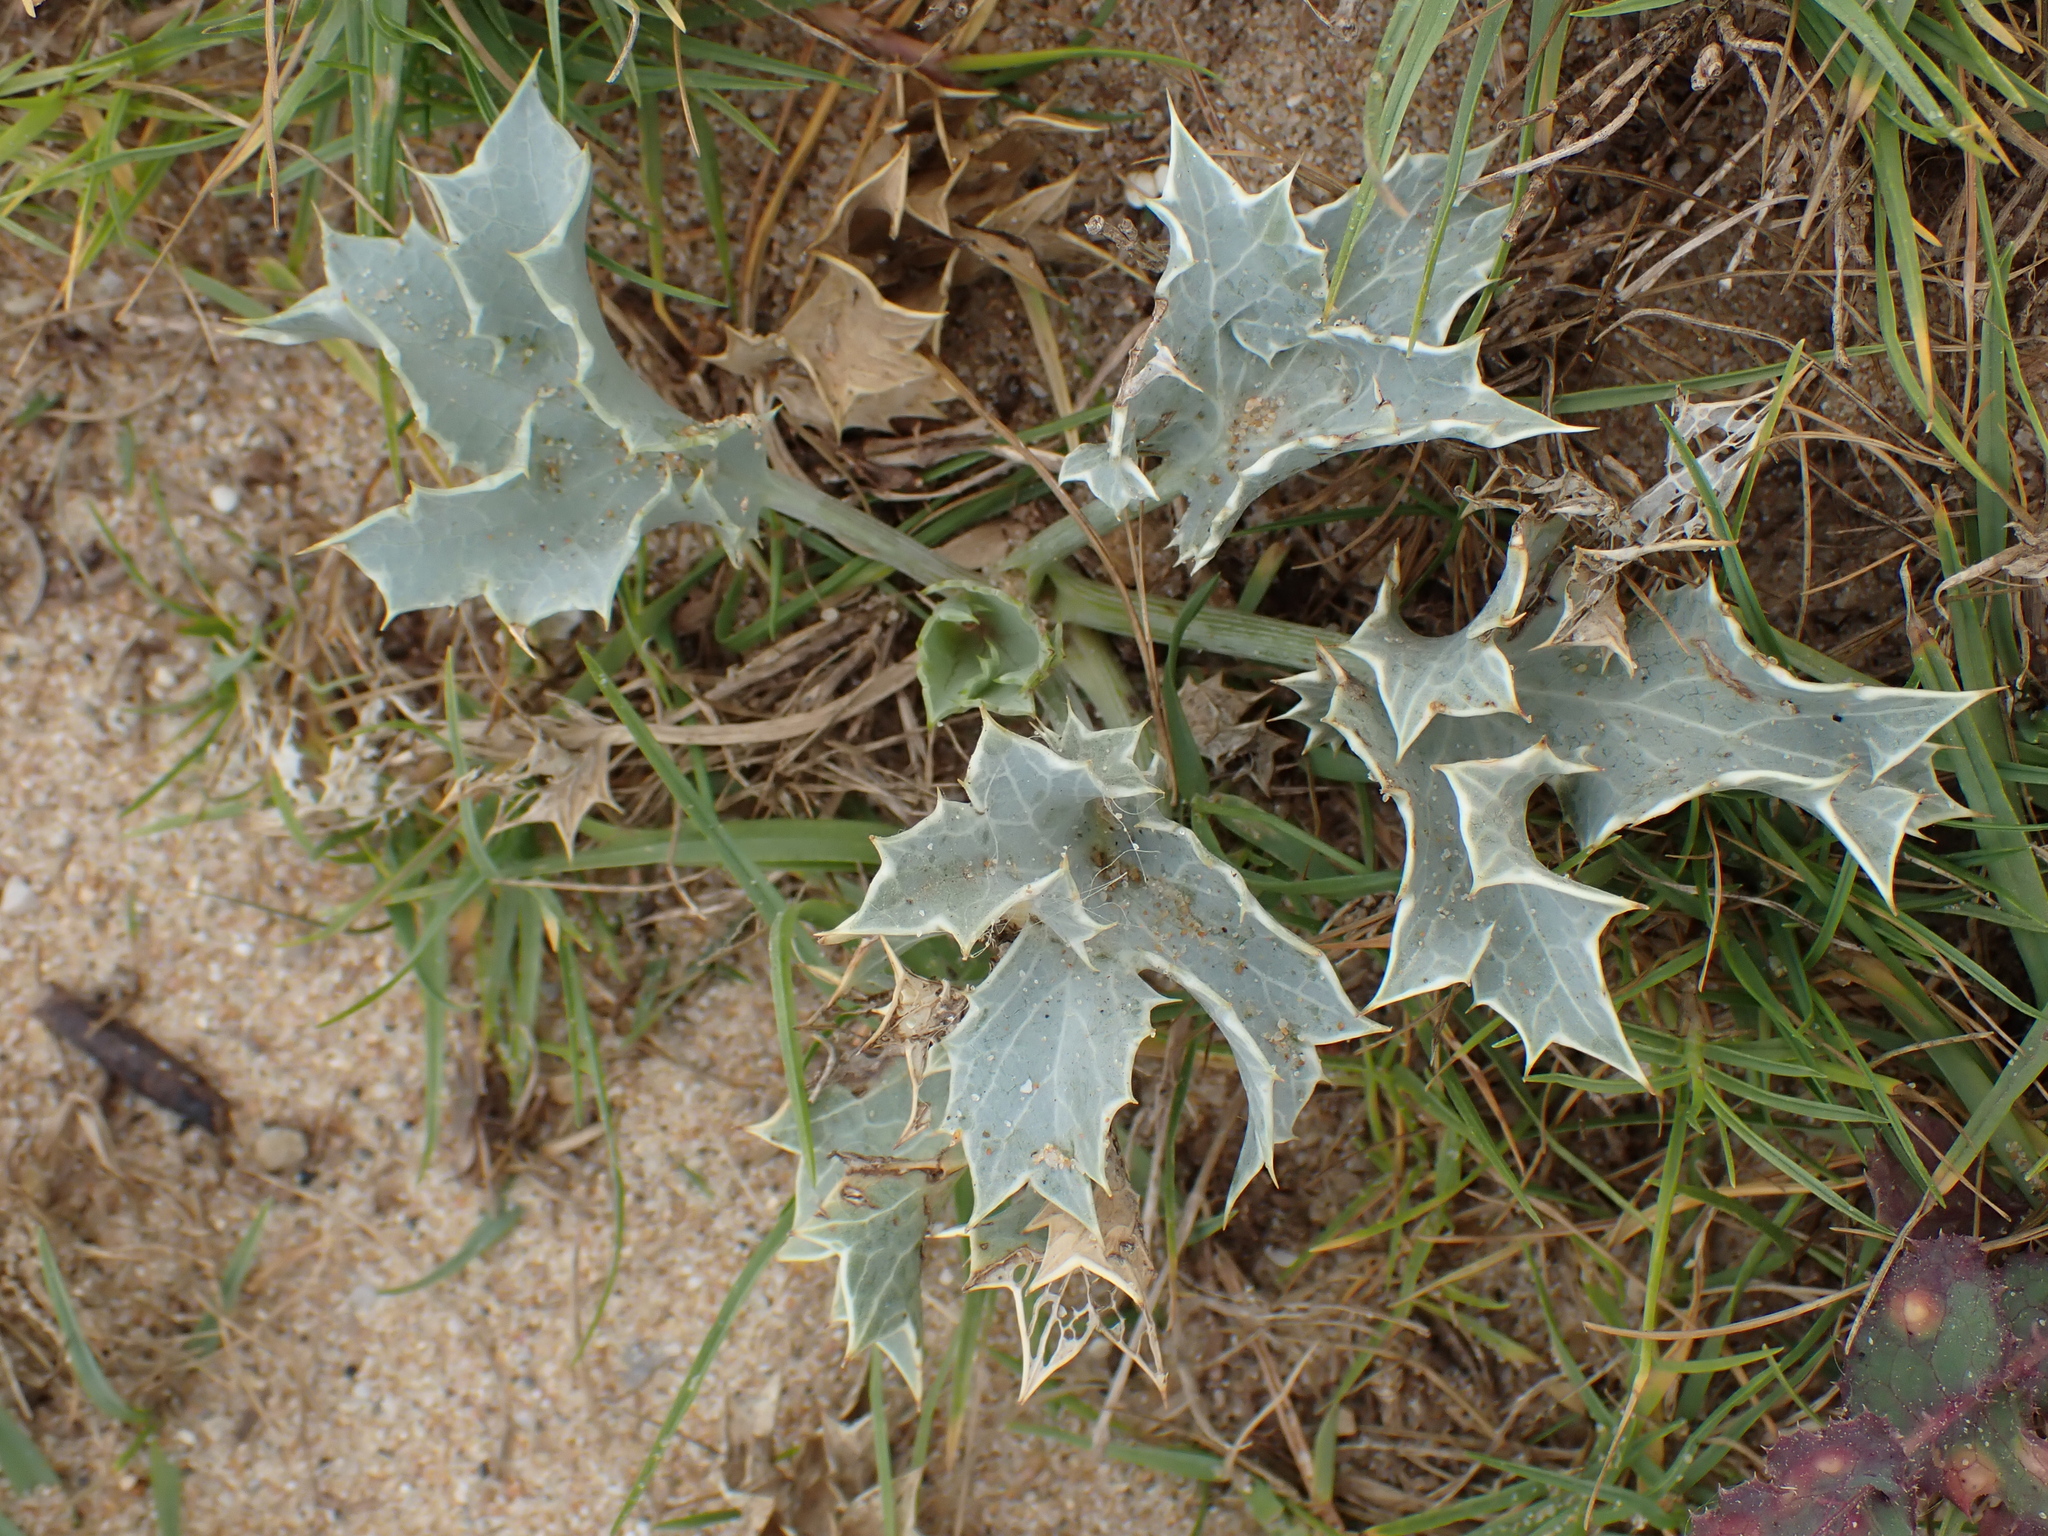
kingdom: Plantae
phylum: Tracheophyta
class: Magnoliopsida
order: Apiales
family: Apiaceae
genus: Eryngium
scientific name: Eryngium maritimum
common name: Sea-holly
